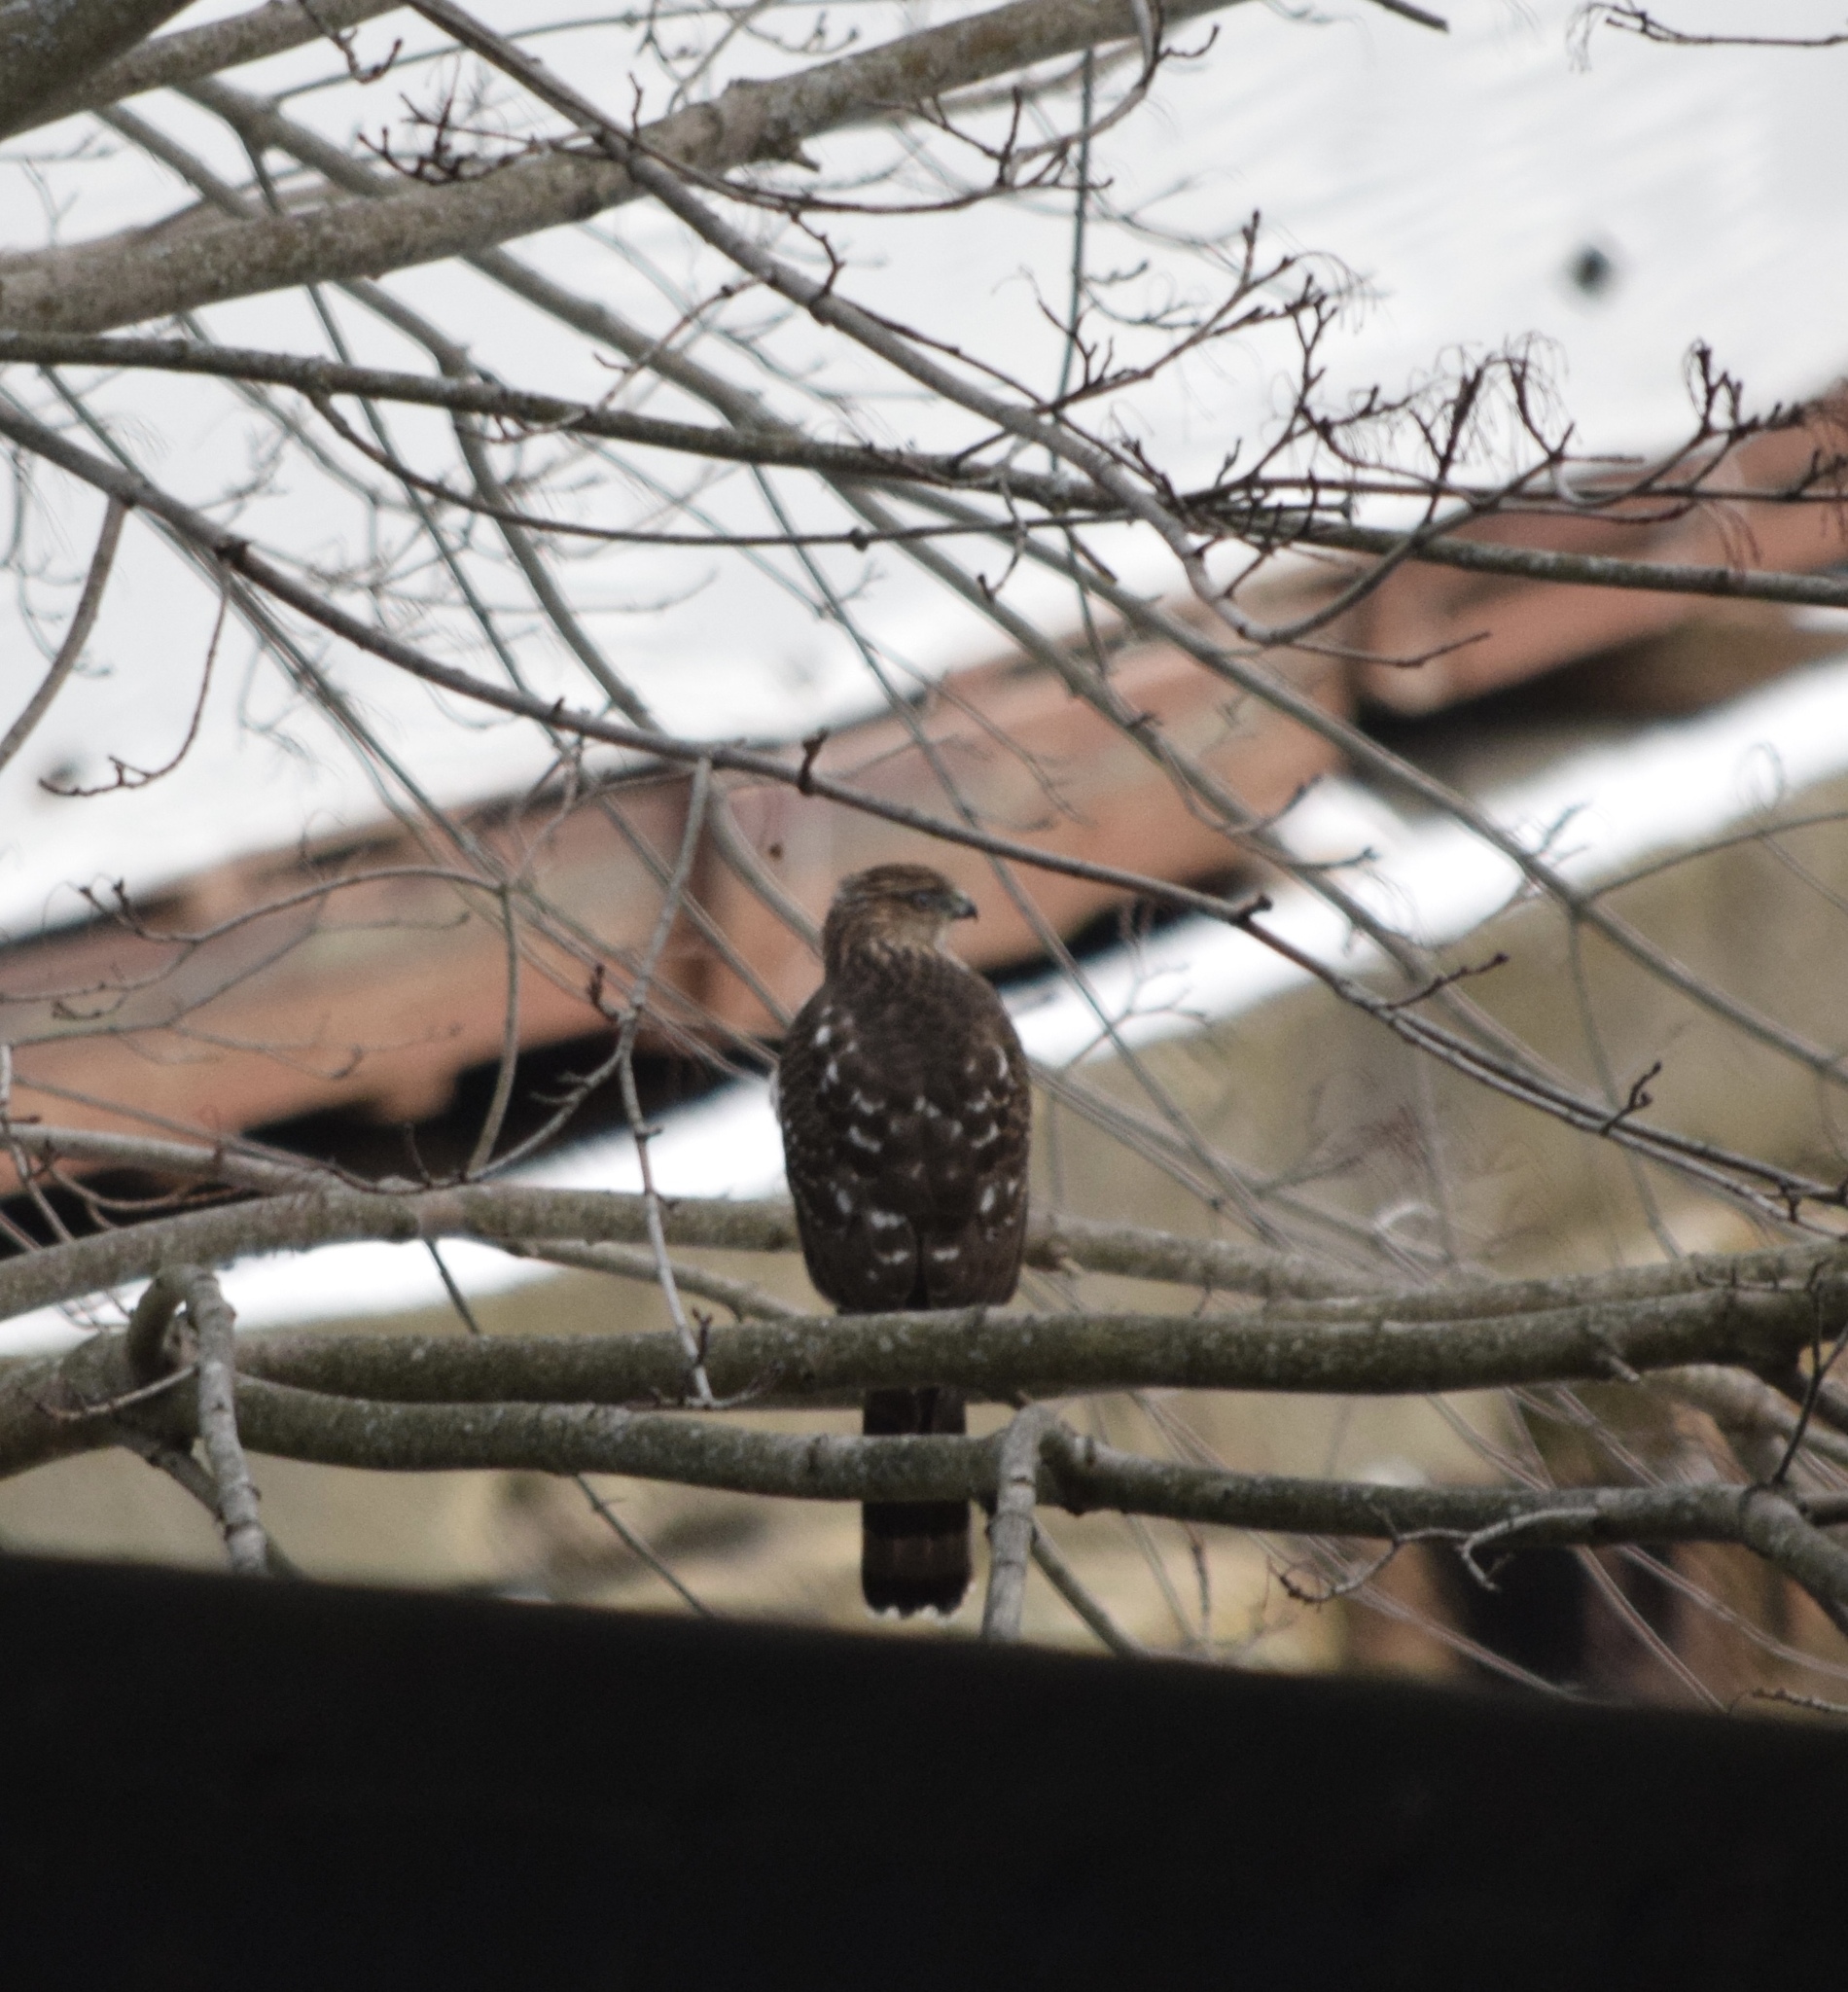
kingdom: Animalia
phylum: Chordata
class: Aves
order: Accipitriformes
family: Accipitridae
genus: Accipiter
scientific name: Accipiter cooperii
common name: Cooper's hawk
